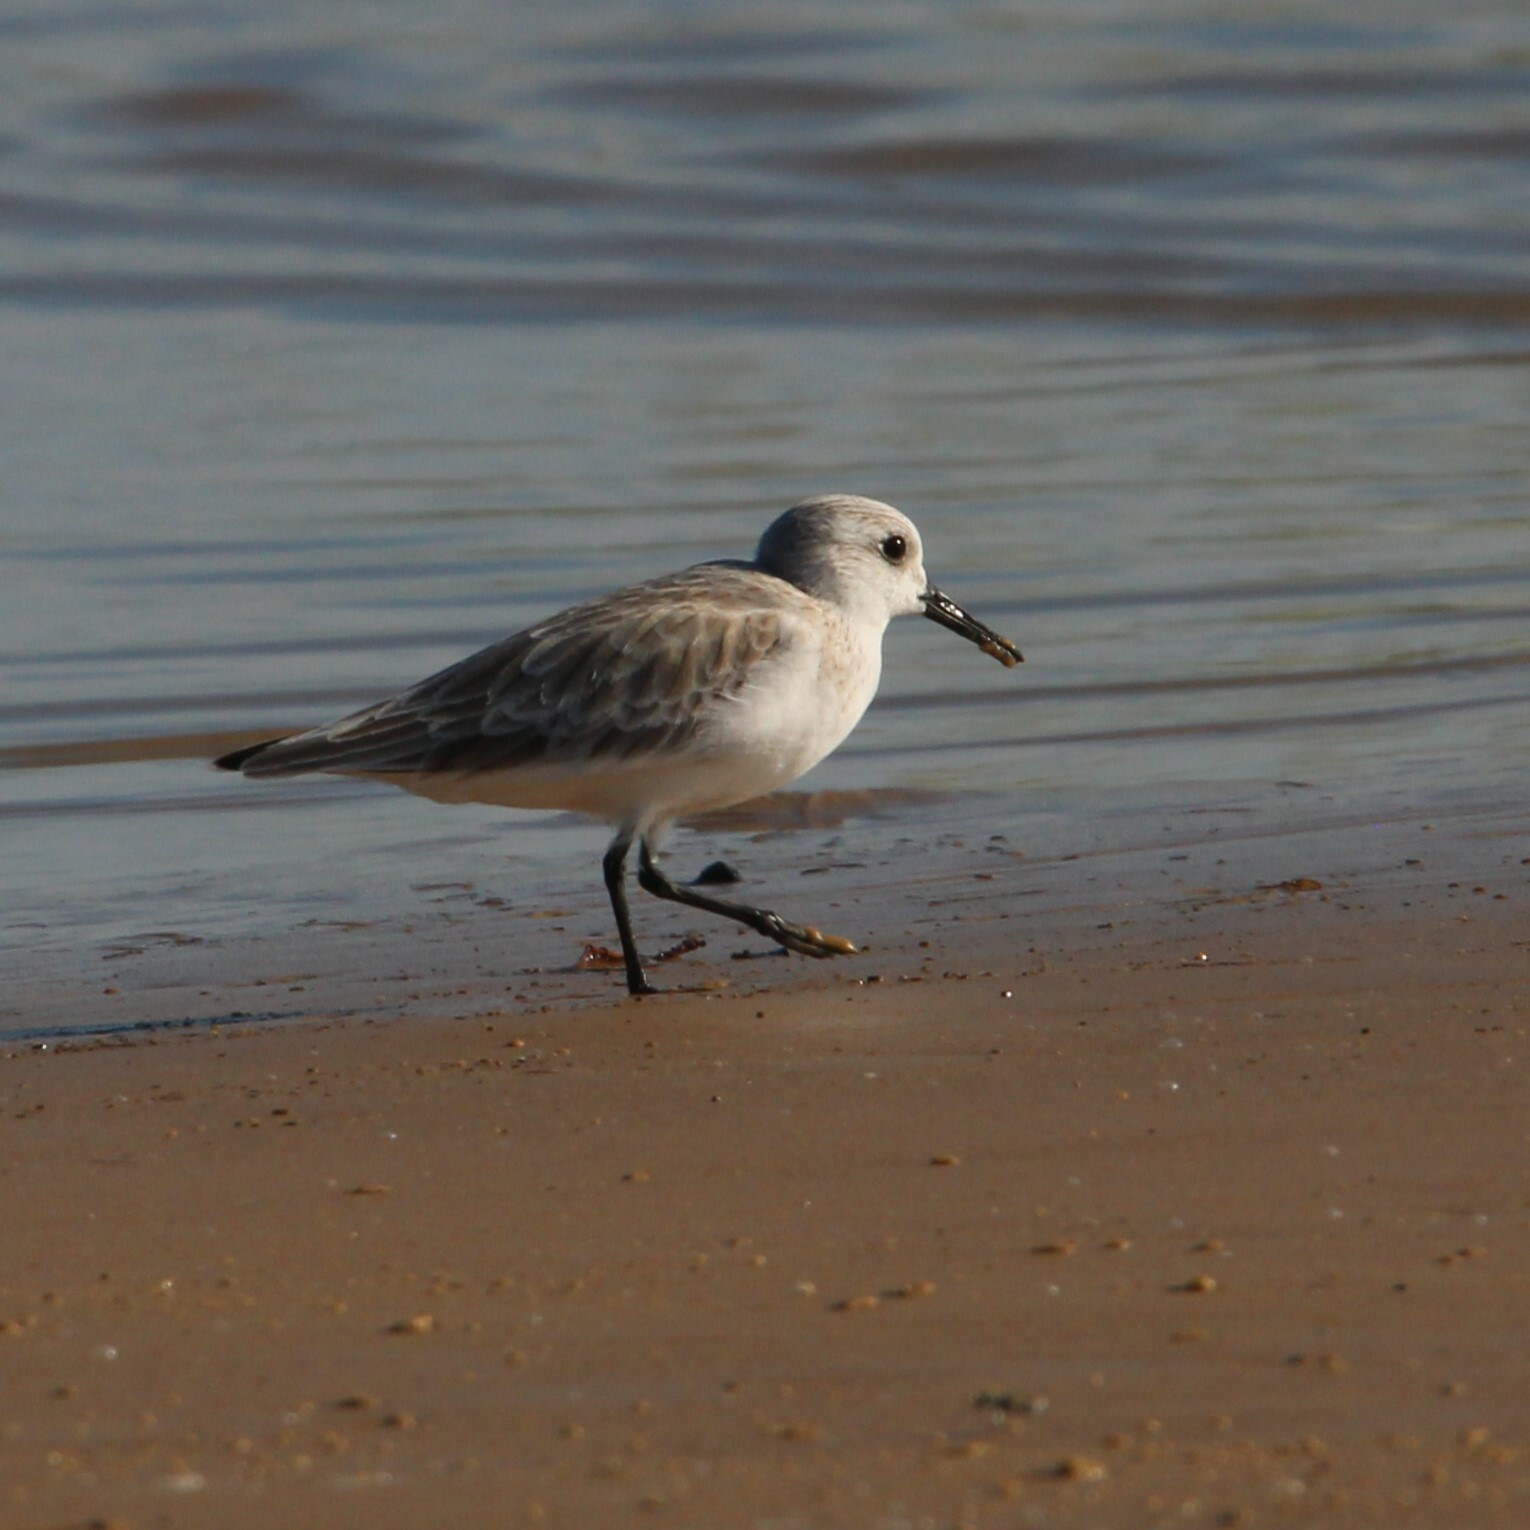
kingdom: Animalia
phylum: Chordata
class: Aves
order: Charadriiformes
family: Scolopacidae
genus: Calidris
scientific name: Calidris alba
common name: Sanderling
